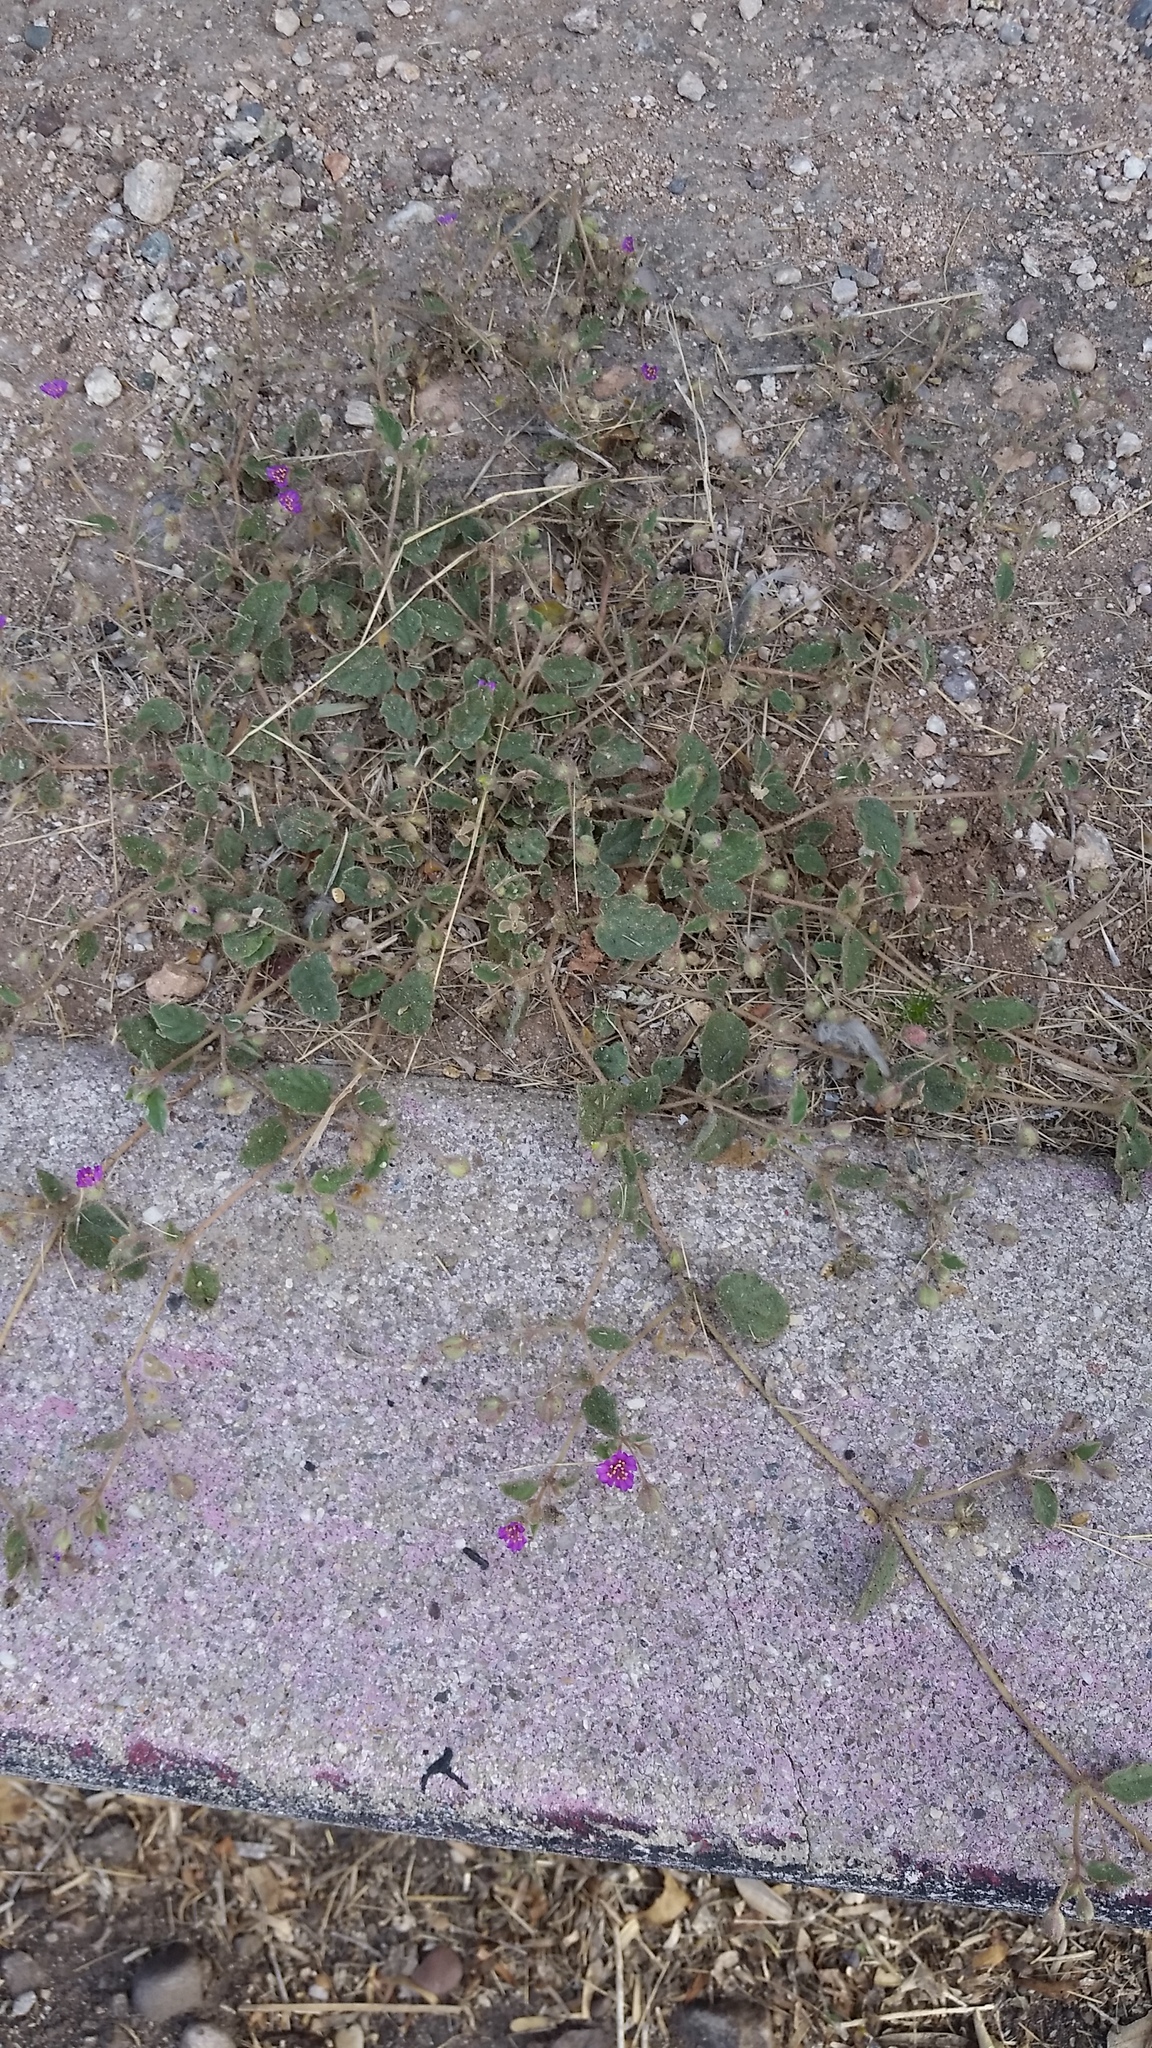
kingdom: Plantae
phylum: Tracheophyta
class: Magnoliopsida
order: Caryophyllales
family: Nyctaginaceae
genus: Allionia
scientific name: Allionia incarnata
